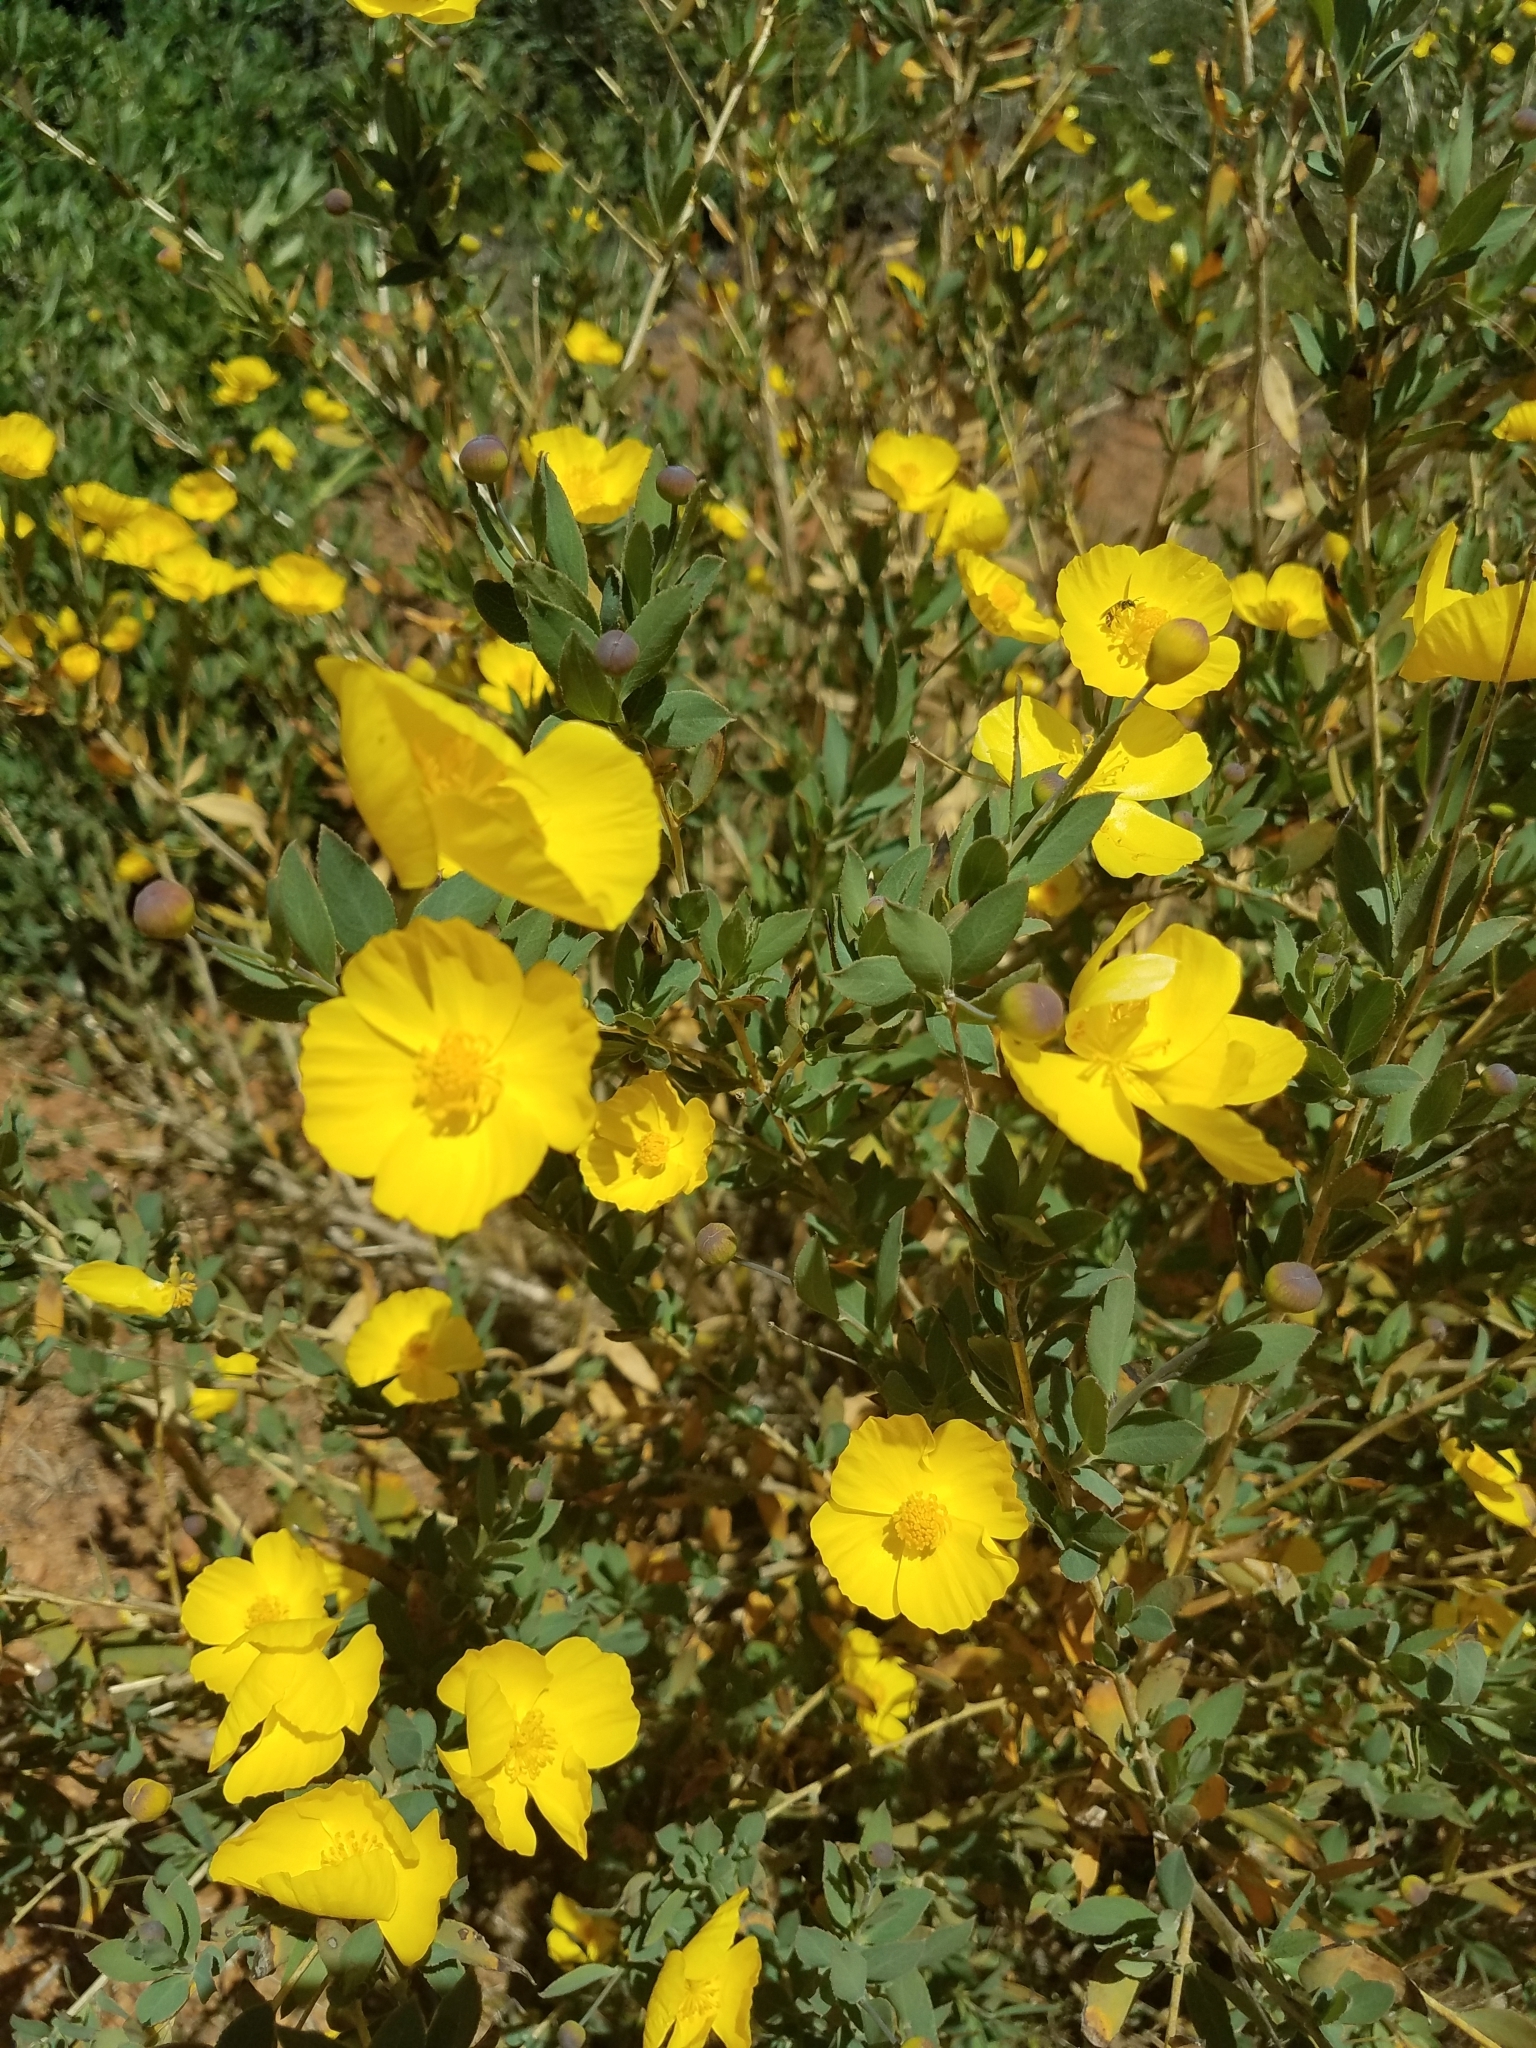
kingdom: Plantae
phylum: Tracheophyta
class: Magnoliopsida
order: Ranunculales
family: Papaveraceae
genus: Dendromecon
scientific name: Dendromecon rigida
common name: Tree poppy
